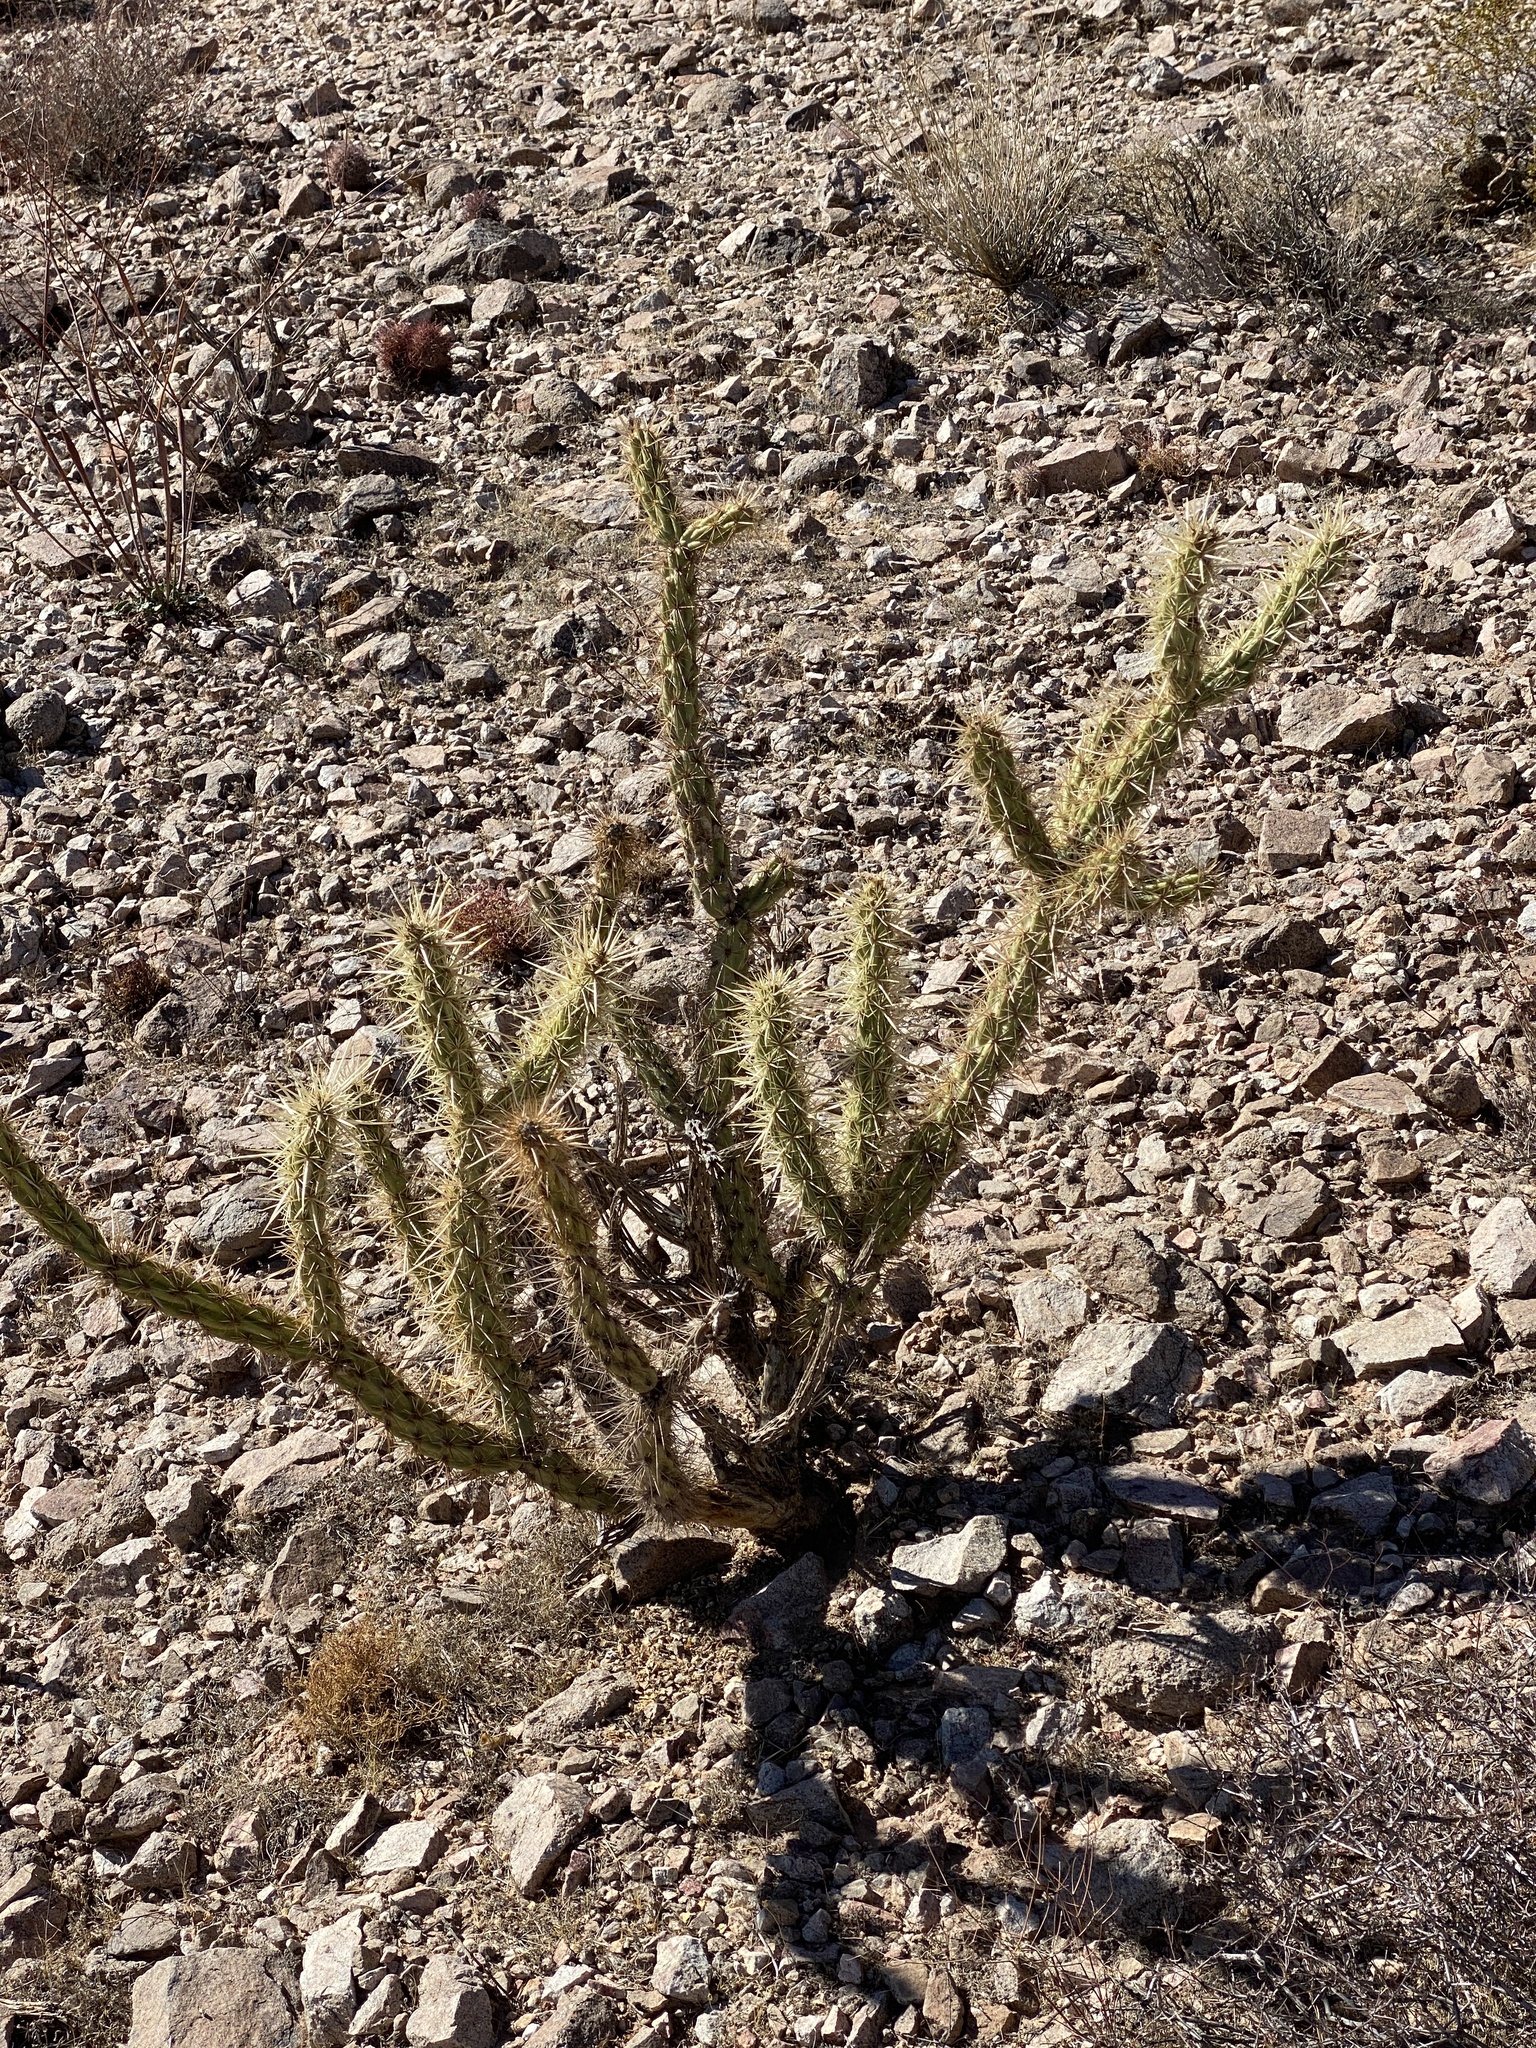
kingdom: Plantae
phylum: Tracheophyta
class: Magnoliopsida
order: Caryophyllales
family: Cactaceae
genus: Cylindropuntia
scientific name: Cylindropuntia acanthocarpa
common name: Buckhorn cholla
